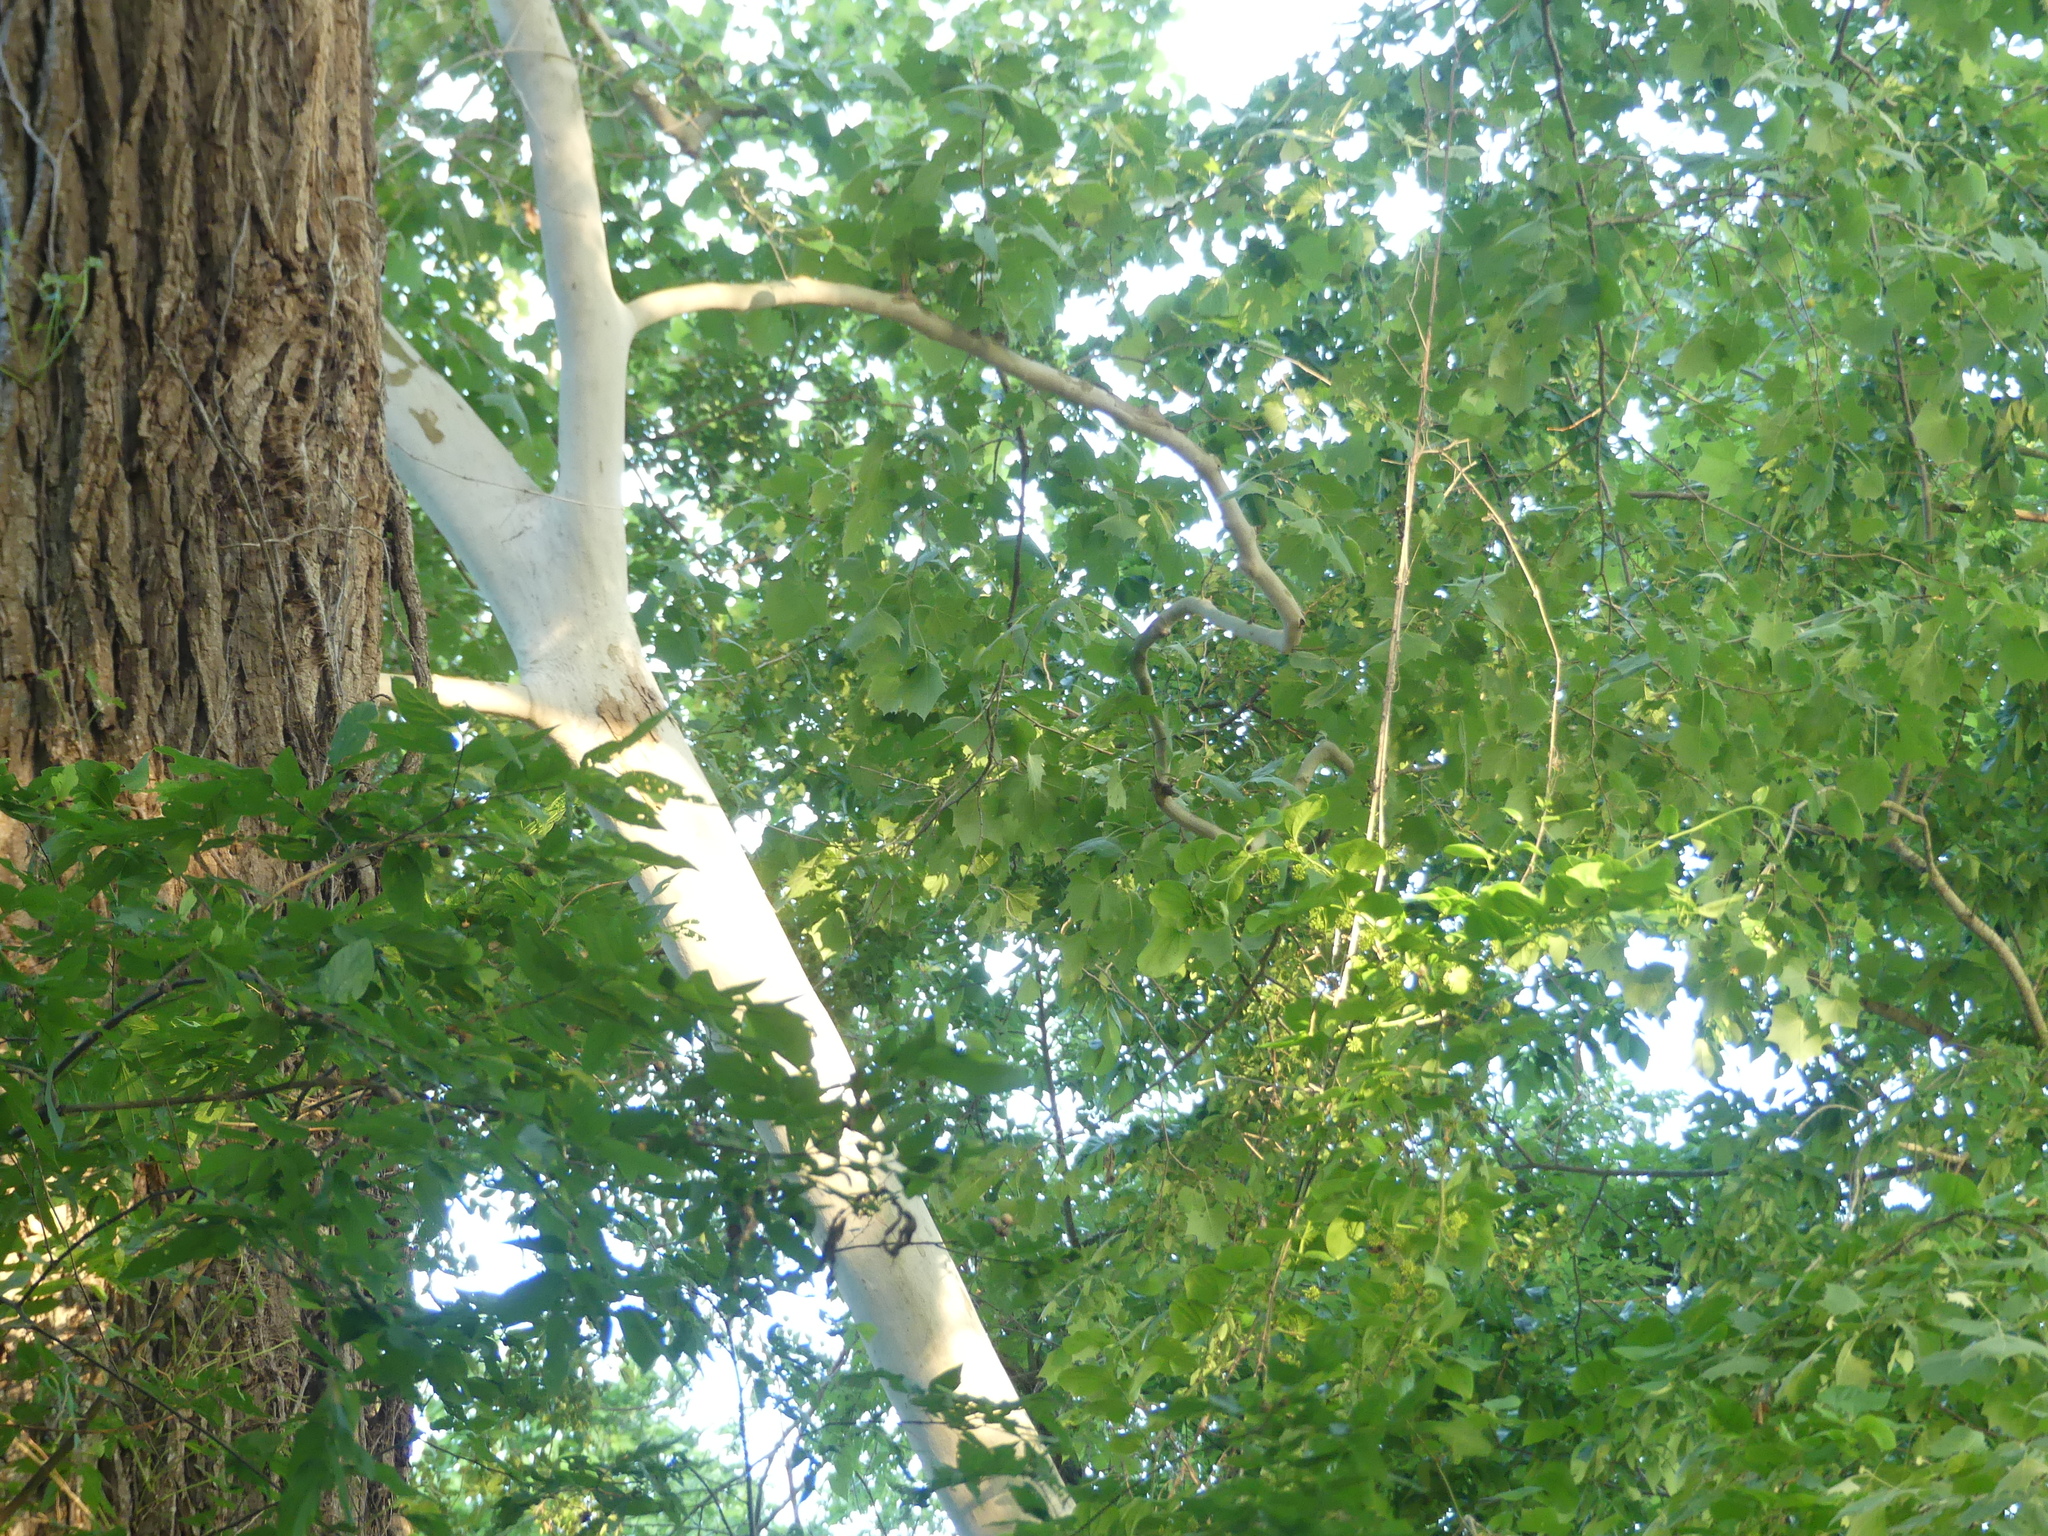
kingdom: Plantae
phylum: Tracheophyta
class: Magnoliopsida
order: Proteales
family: Platanaceae
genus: Platanus
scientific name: Platanus occidentalis
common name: American sycamore
